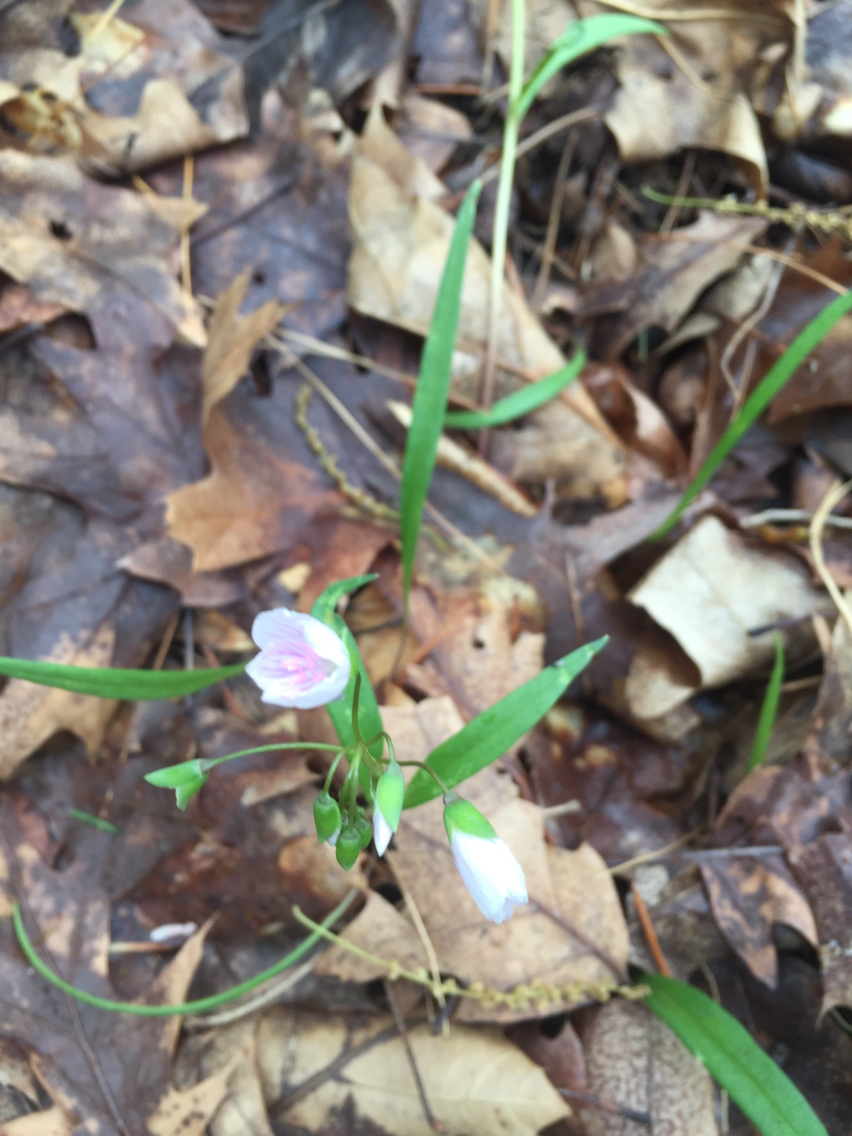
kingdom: Plantae
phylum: Tracheophyta
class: Magnoliopsida
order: Caryophyllales
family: Montiaceae
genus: Claytonia
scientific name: Claytonia virginica
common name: Virginia springbeauty
